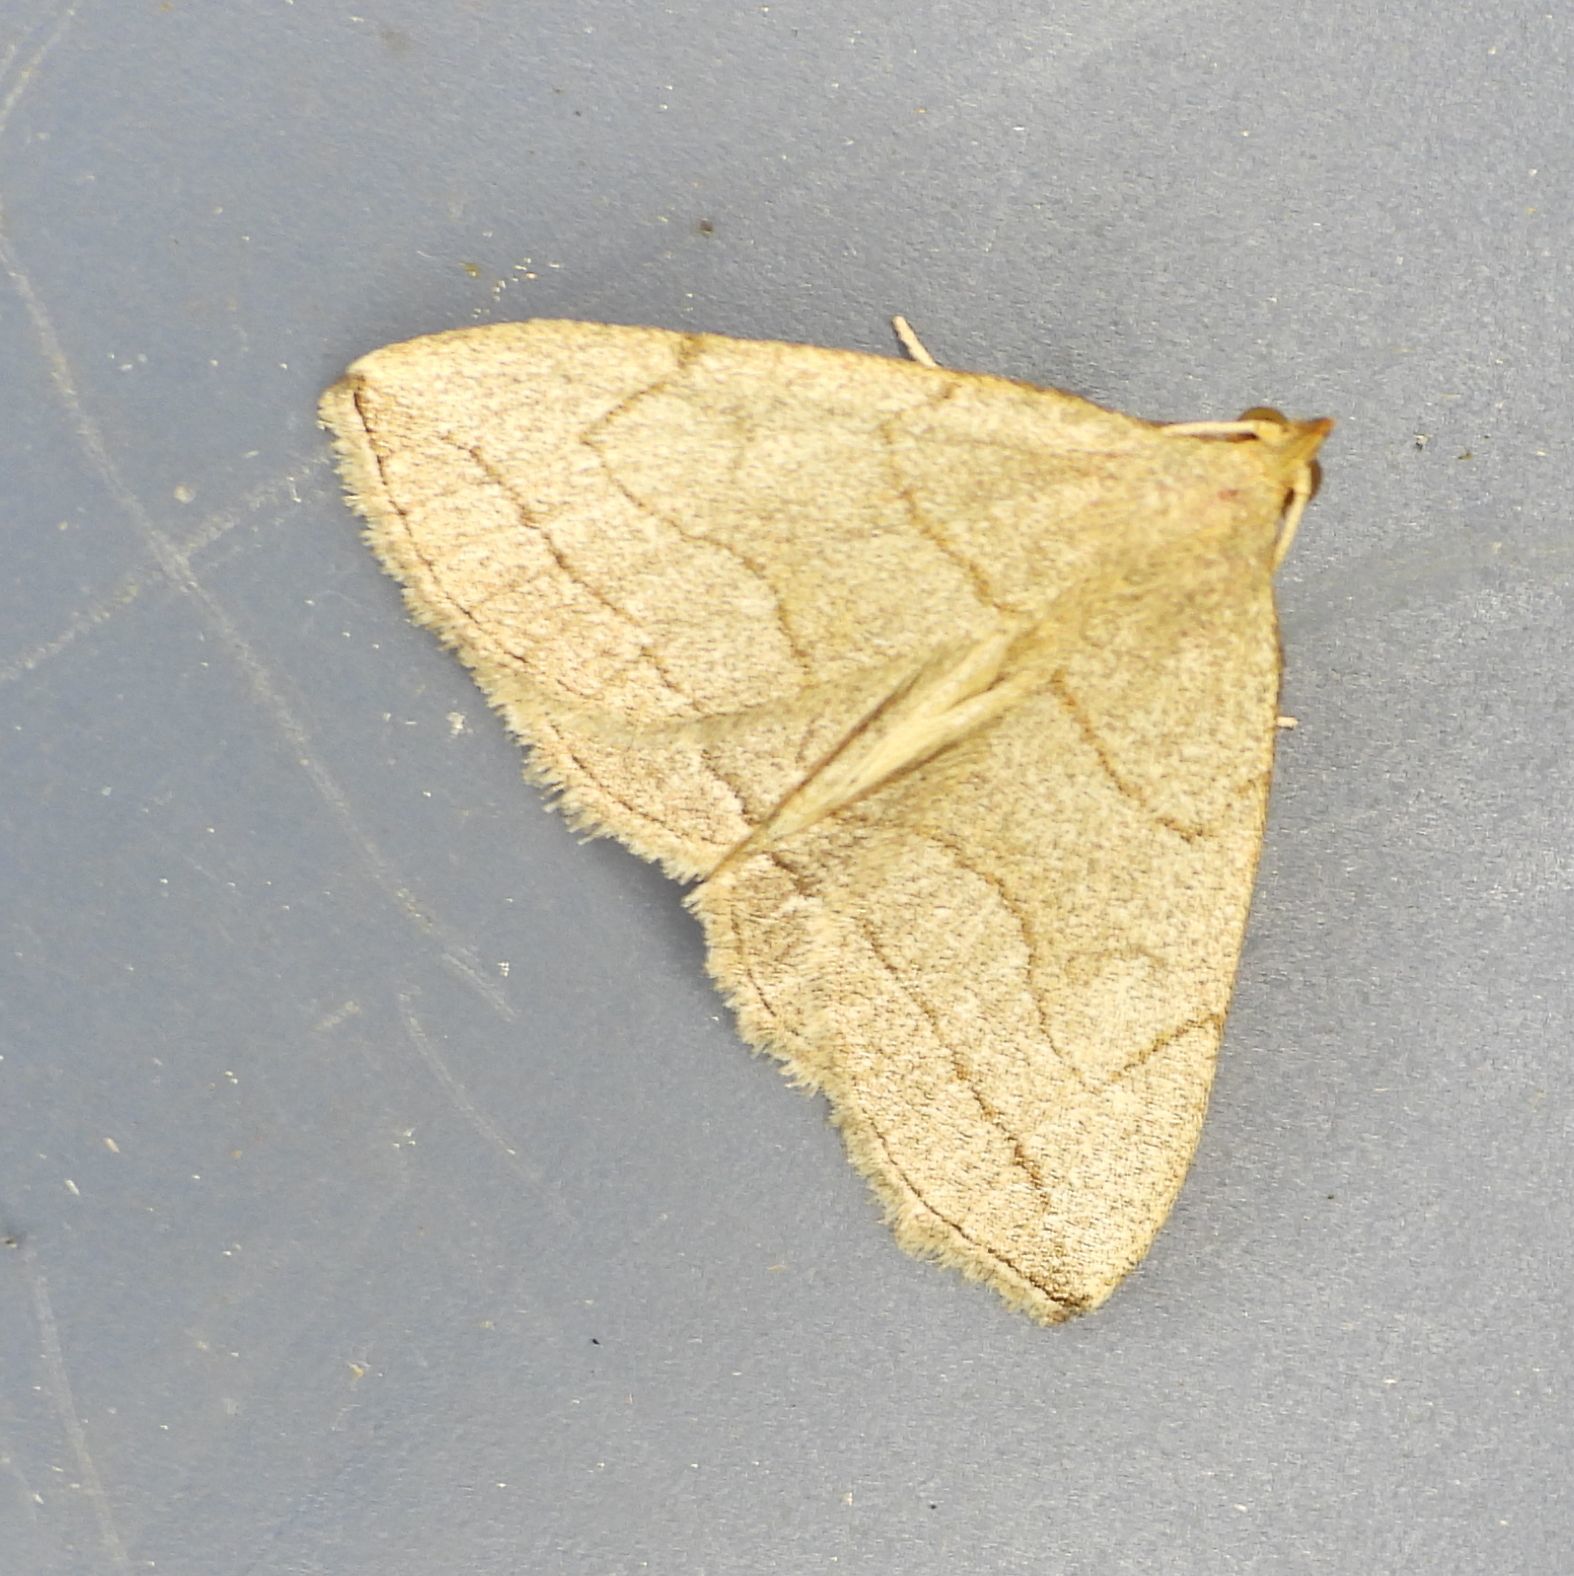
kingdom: Animalia
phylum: Arthropoda
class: Insecta
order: Lepidoptera
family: Erebidae
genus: Zanclognatha
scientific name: Zanclognatha pedipilalis
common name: Grayish fan-foot
